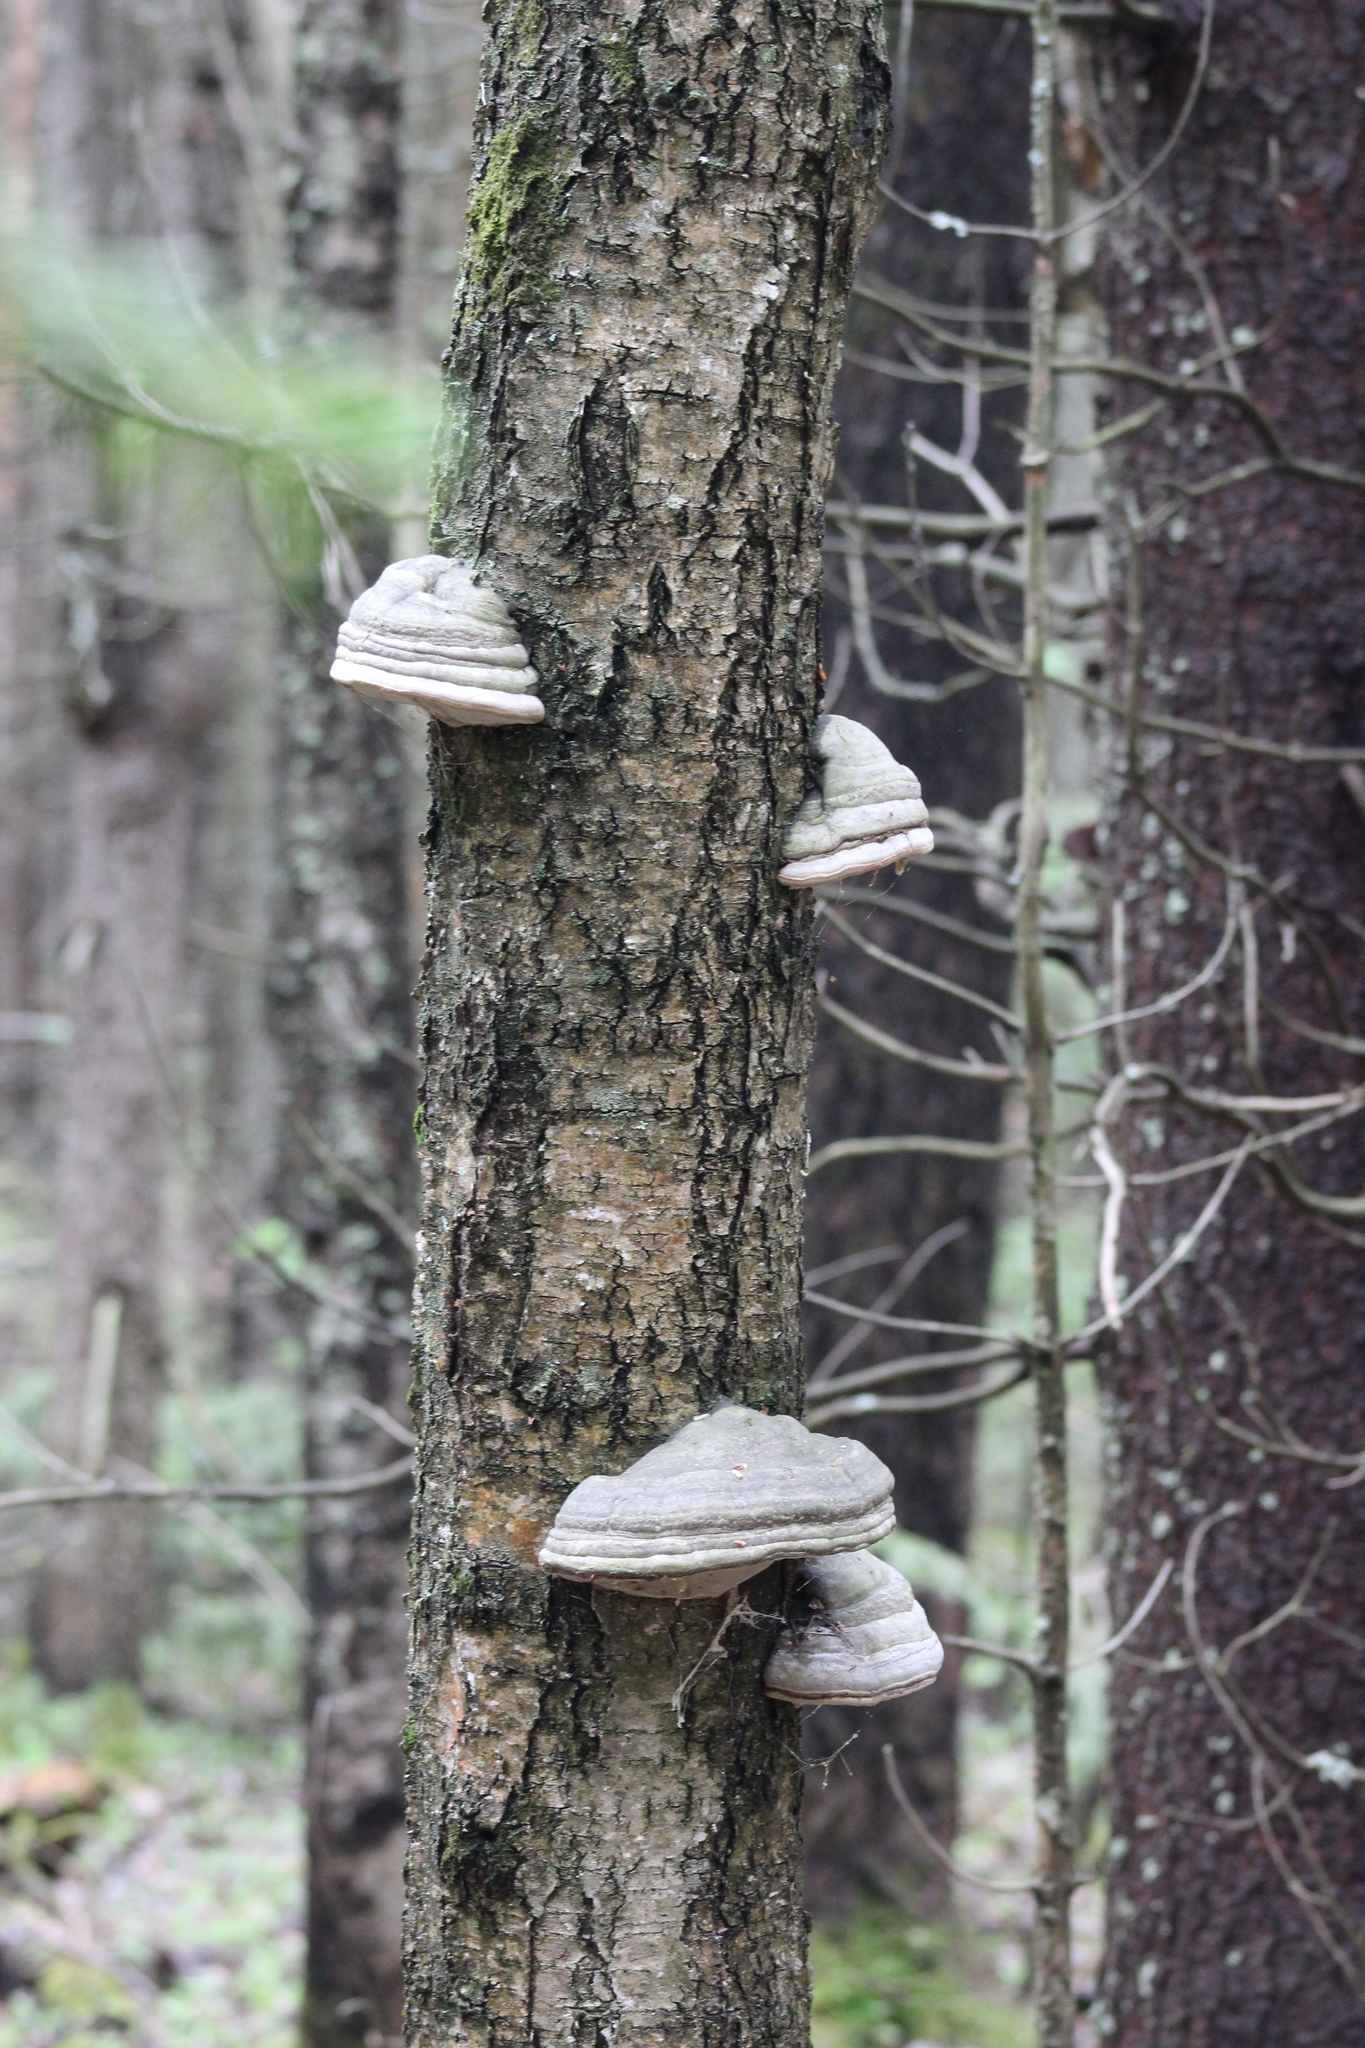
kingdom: Fungi
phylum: Basidiomycota
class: Agaricomycetes
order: Polyporales
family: Polyporaceae
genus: Fomes
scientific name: Fomes fomentarius
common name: Hoof fungus
